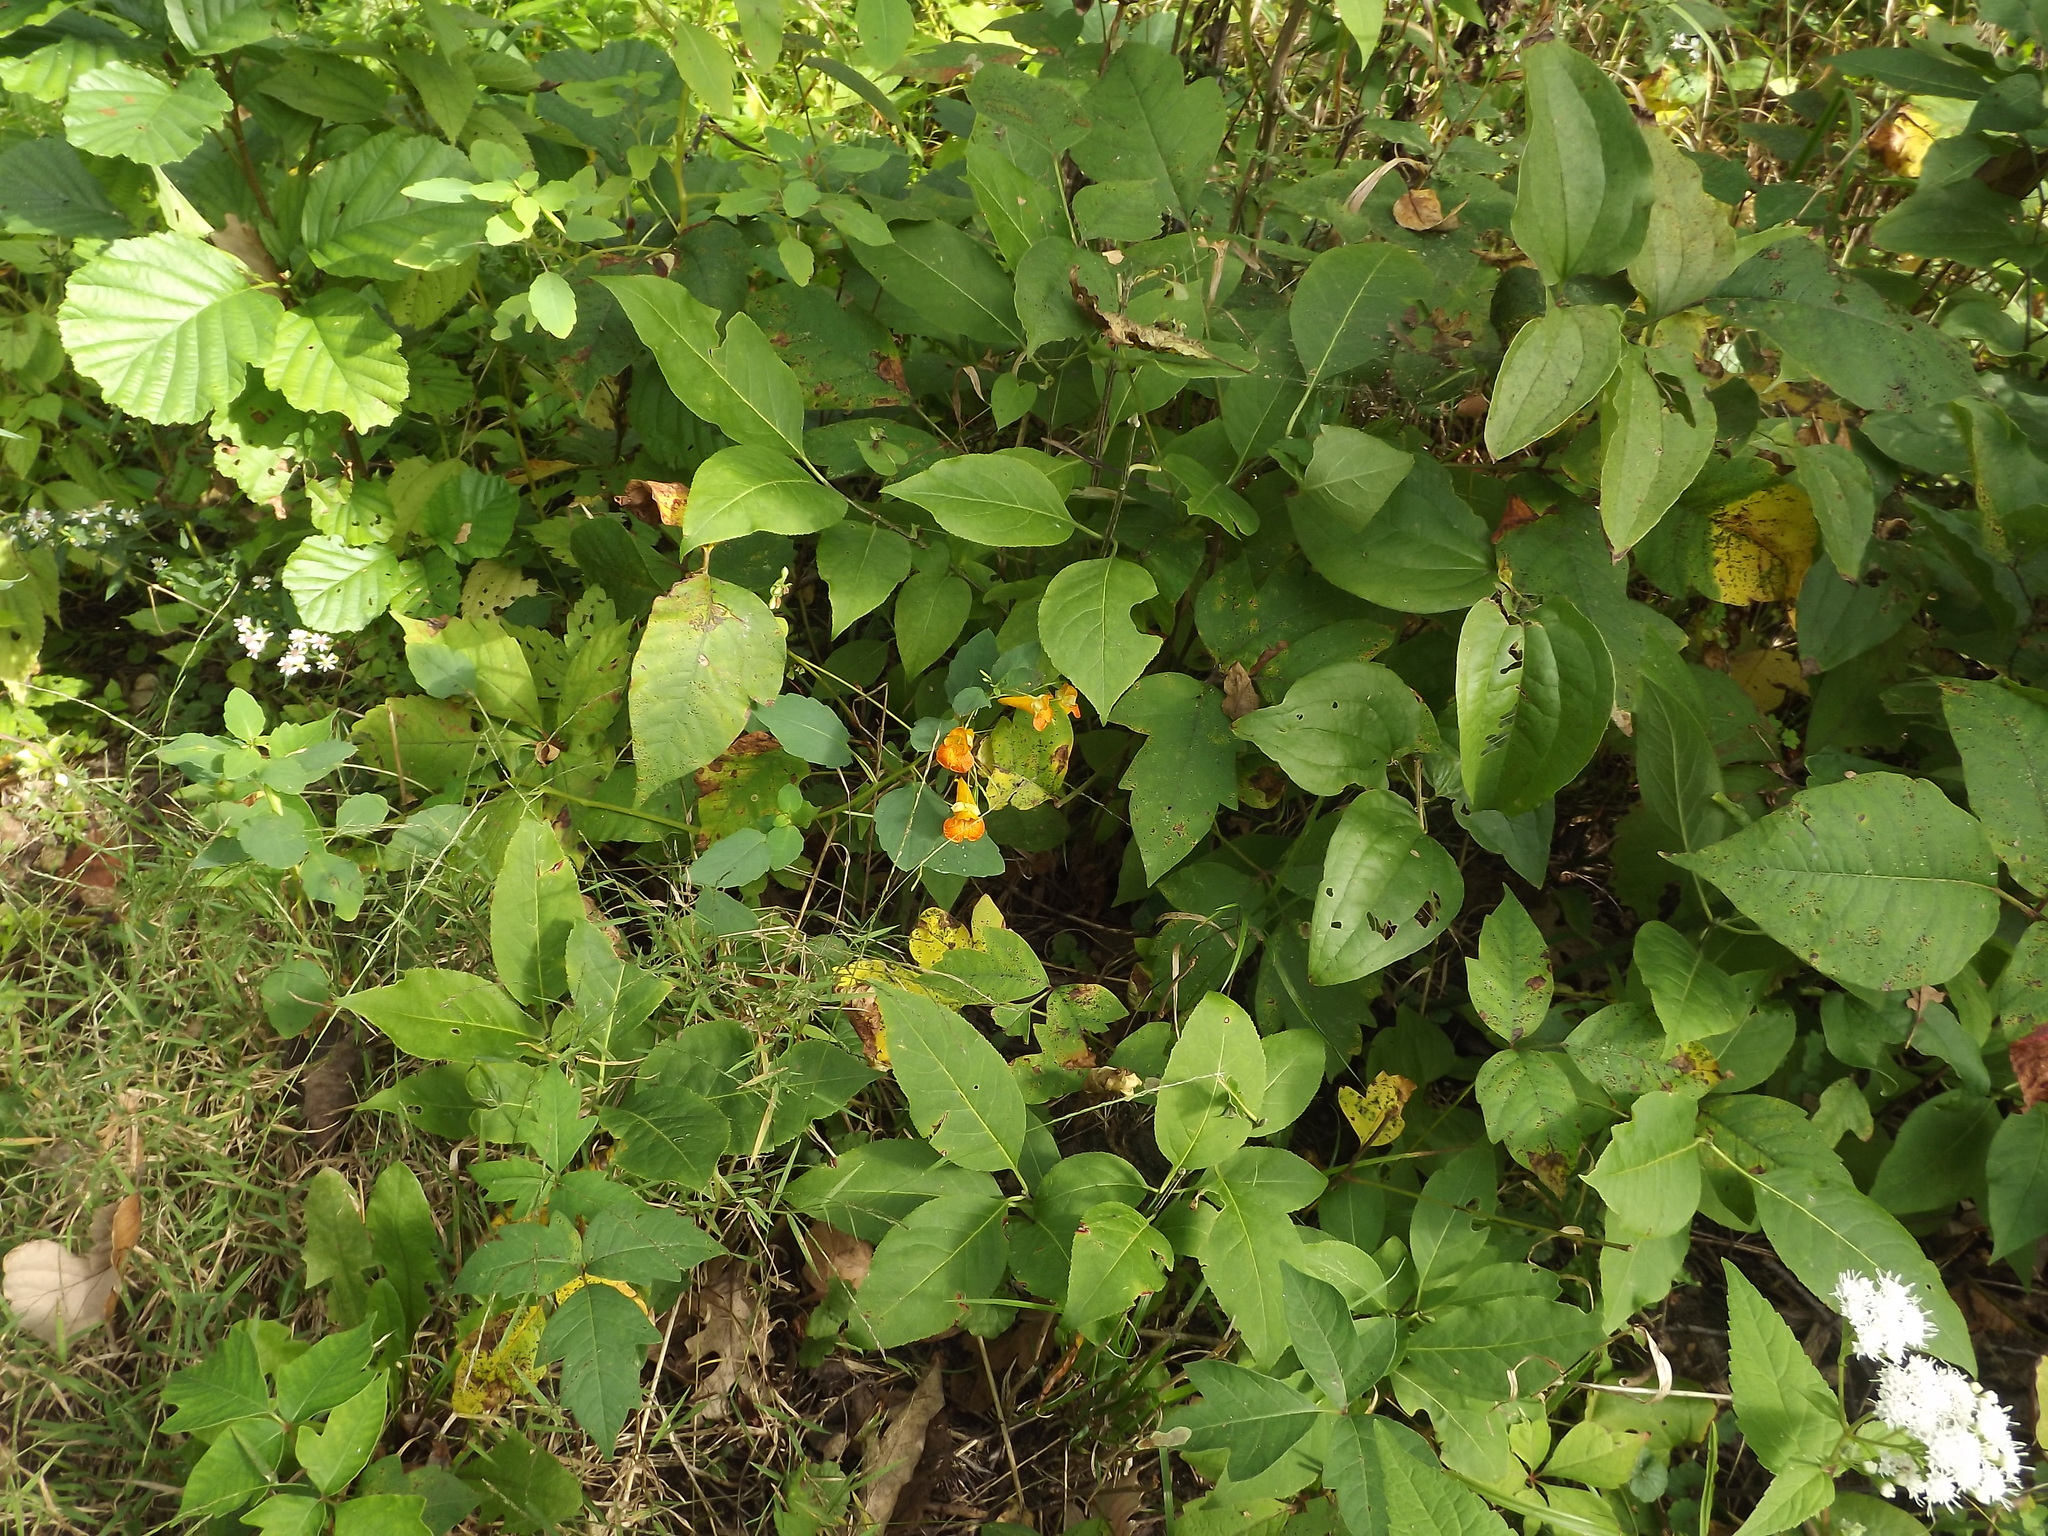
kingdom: Plantae
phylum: Tracheophyta
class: Magnoliopsida
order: Ericales
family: Balsaminaceae
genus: Impatiens
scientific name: Impatiens capensis
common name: Orange balsam
